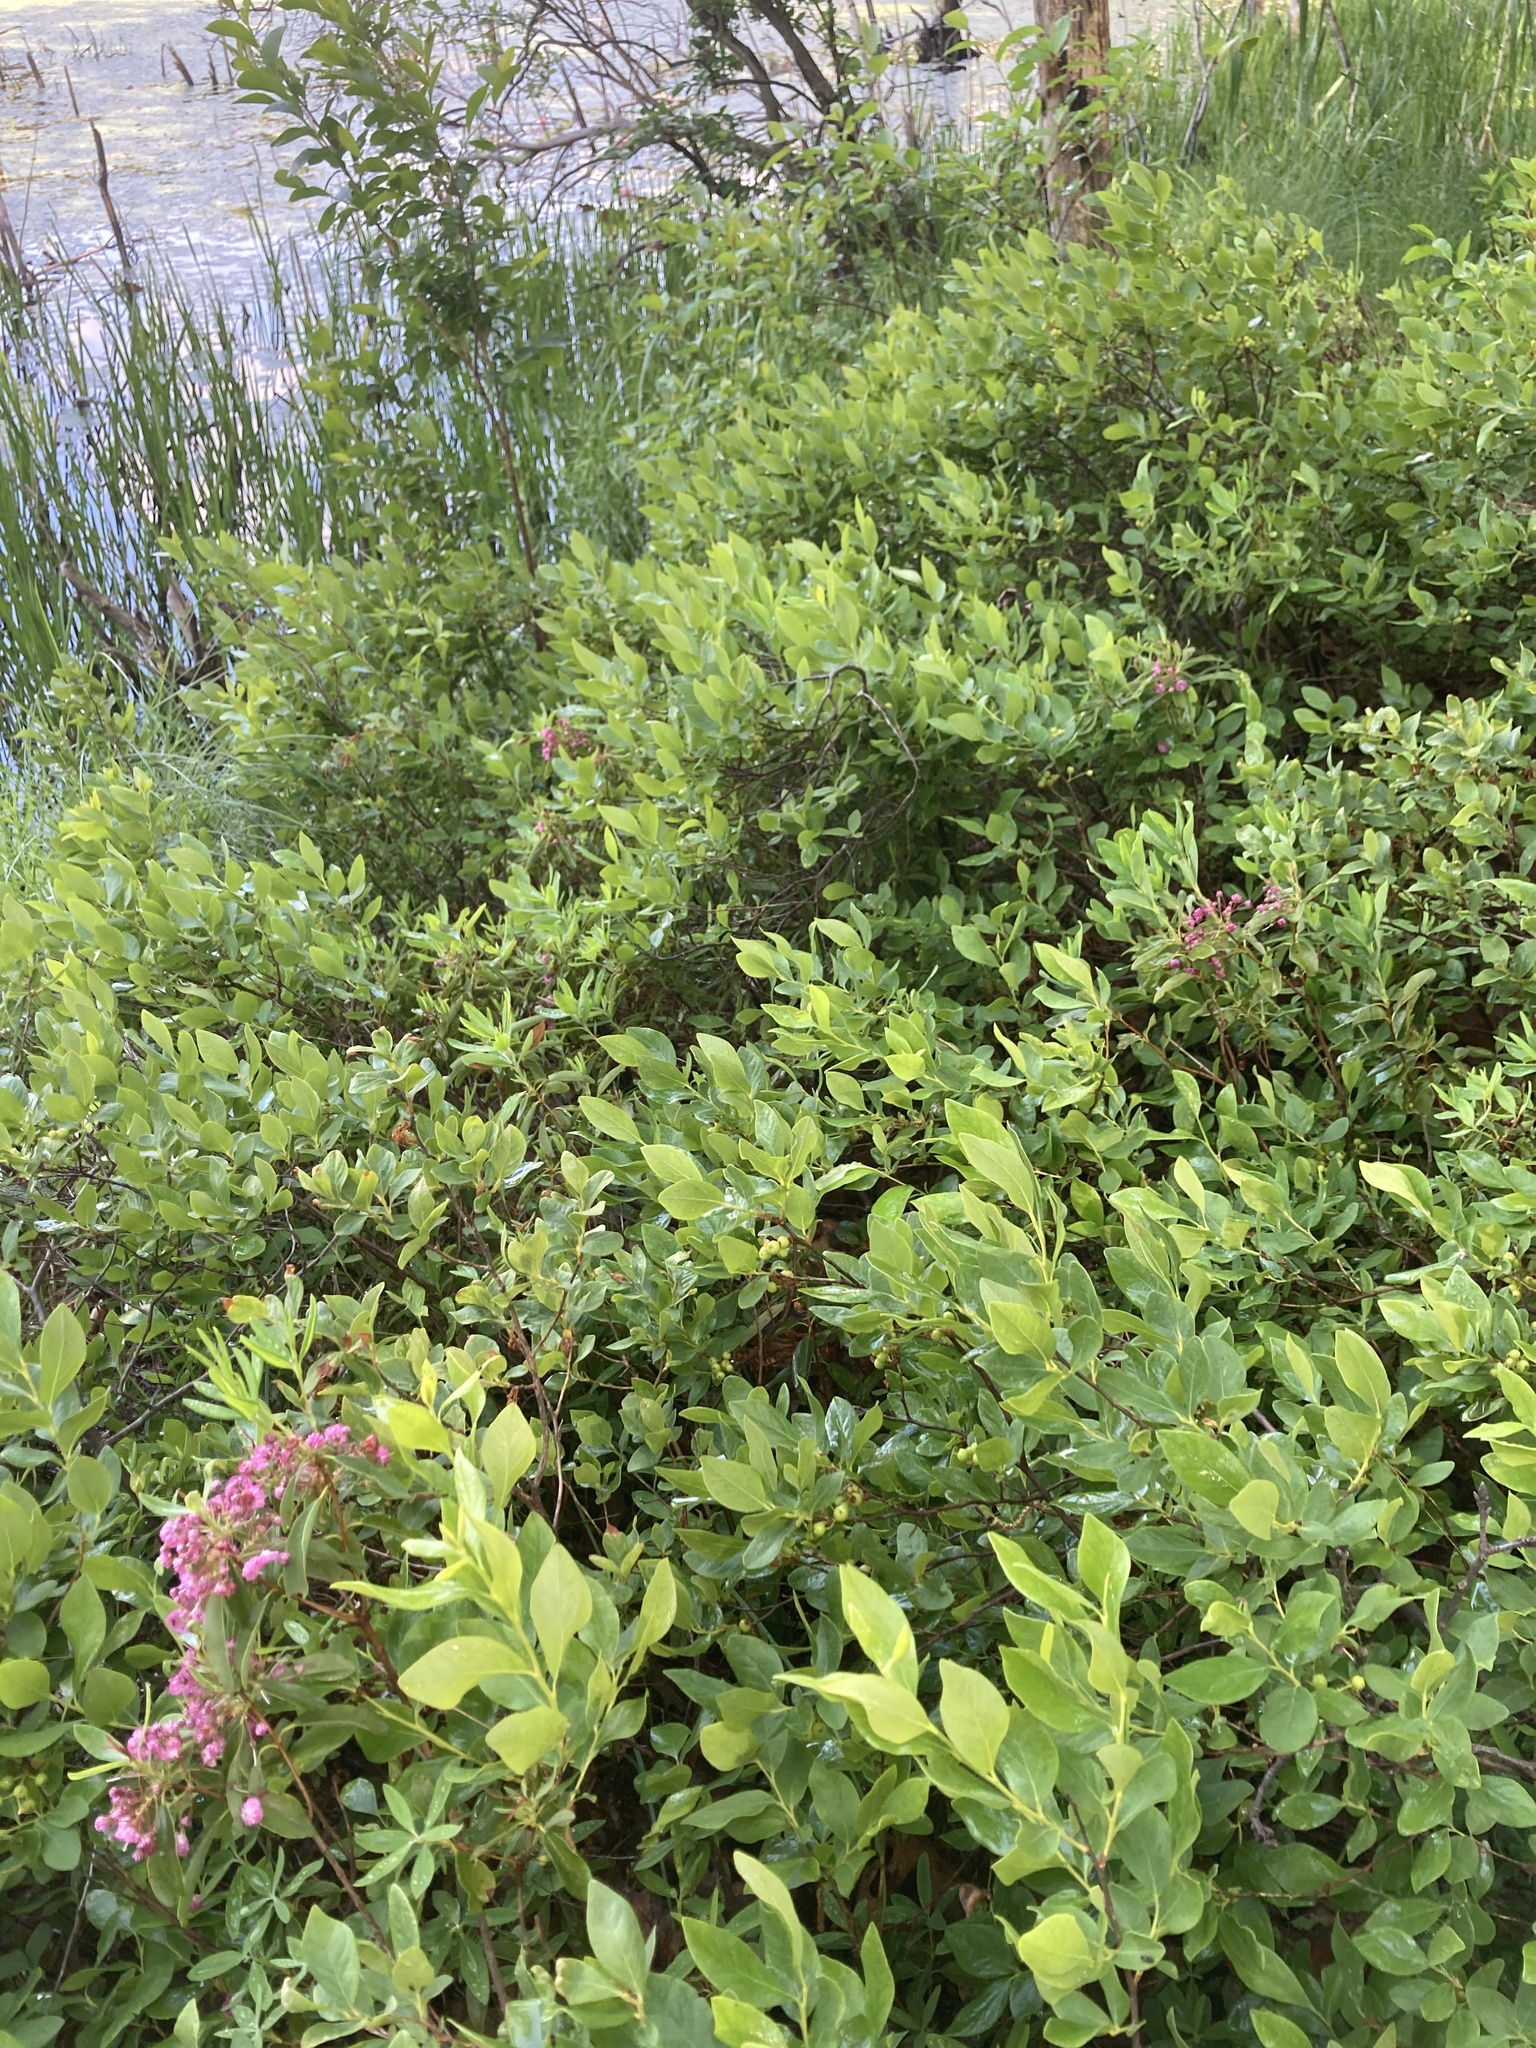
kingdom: Plantae
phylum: Tracheophyta
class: Magnoliopsida
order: Ericales
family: Ericaceae
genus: Kalmia
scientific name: Kalmia angustifolia
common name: Sheep-laurel
